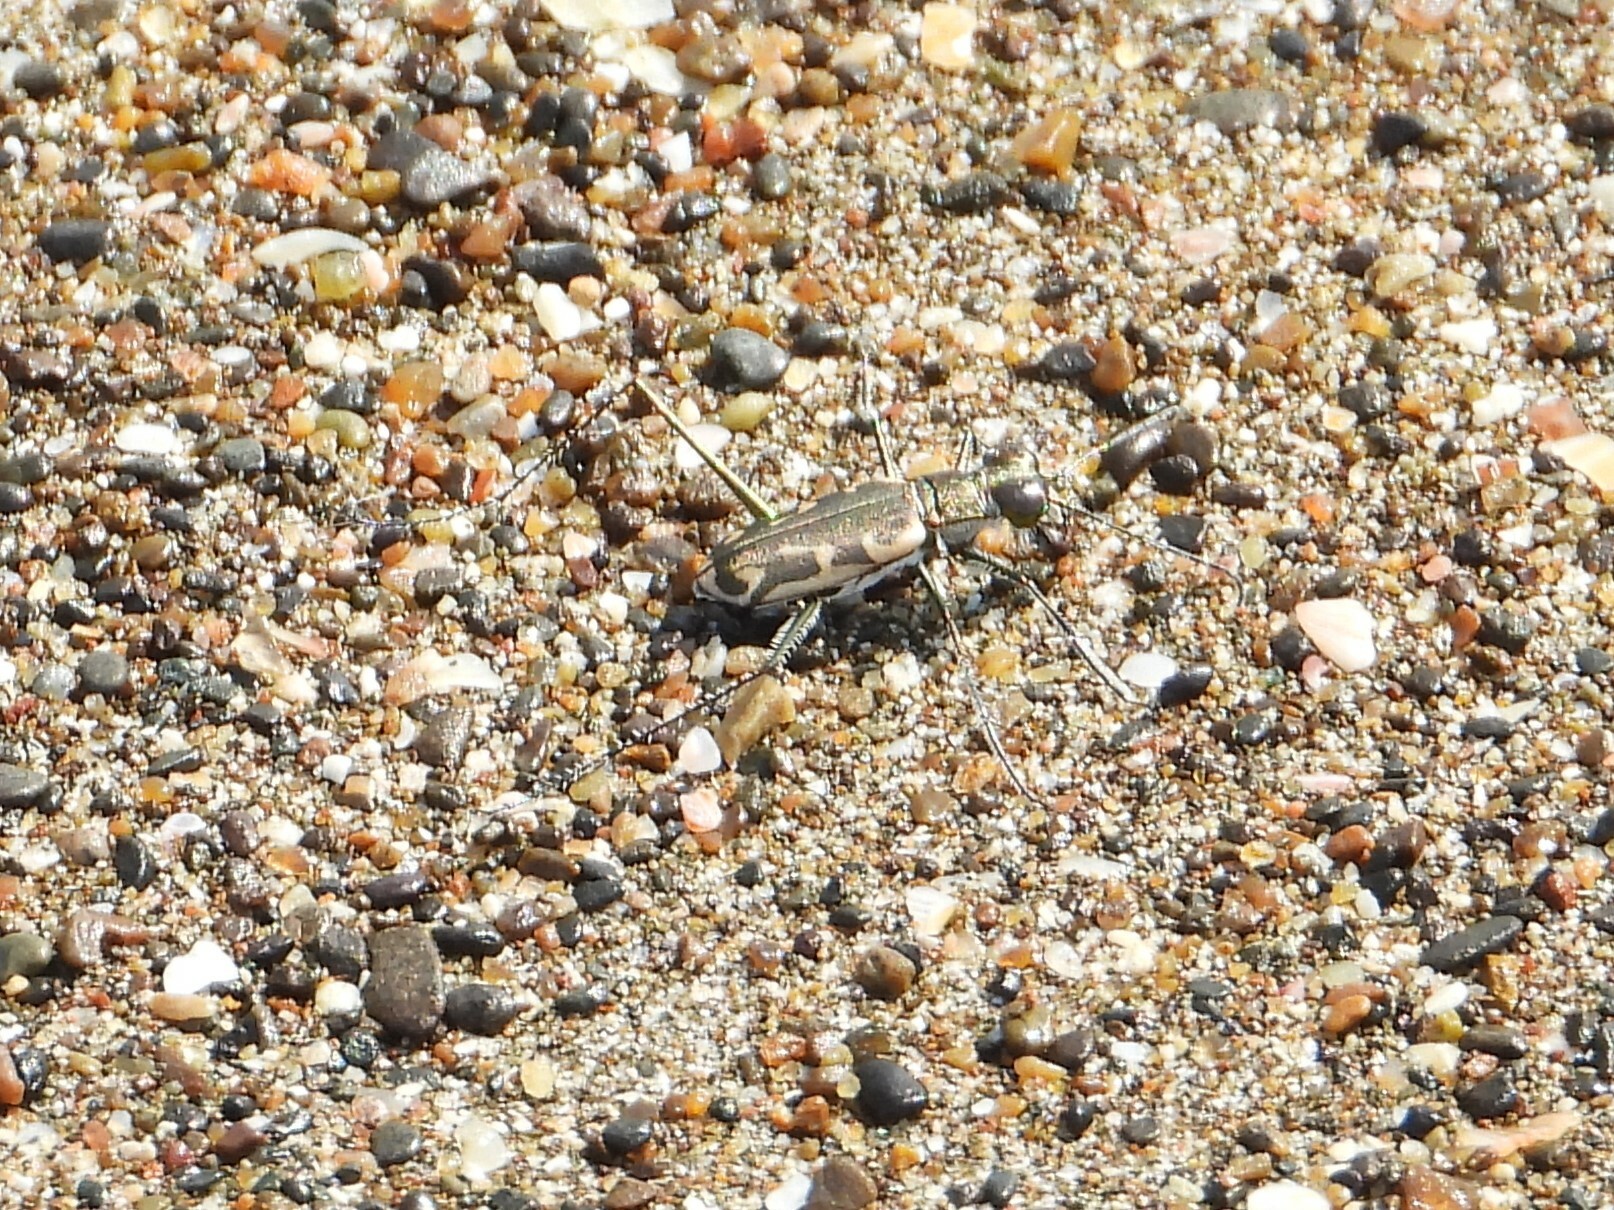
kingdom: Animalia
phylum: Arthropoda
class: Insecta
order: Coleoptera
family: Carabidae
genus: Opilidia
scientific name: Opilidia macrocnema
